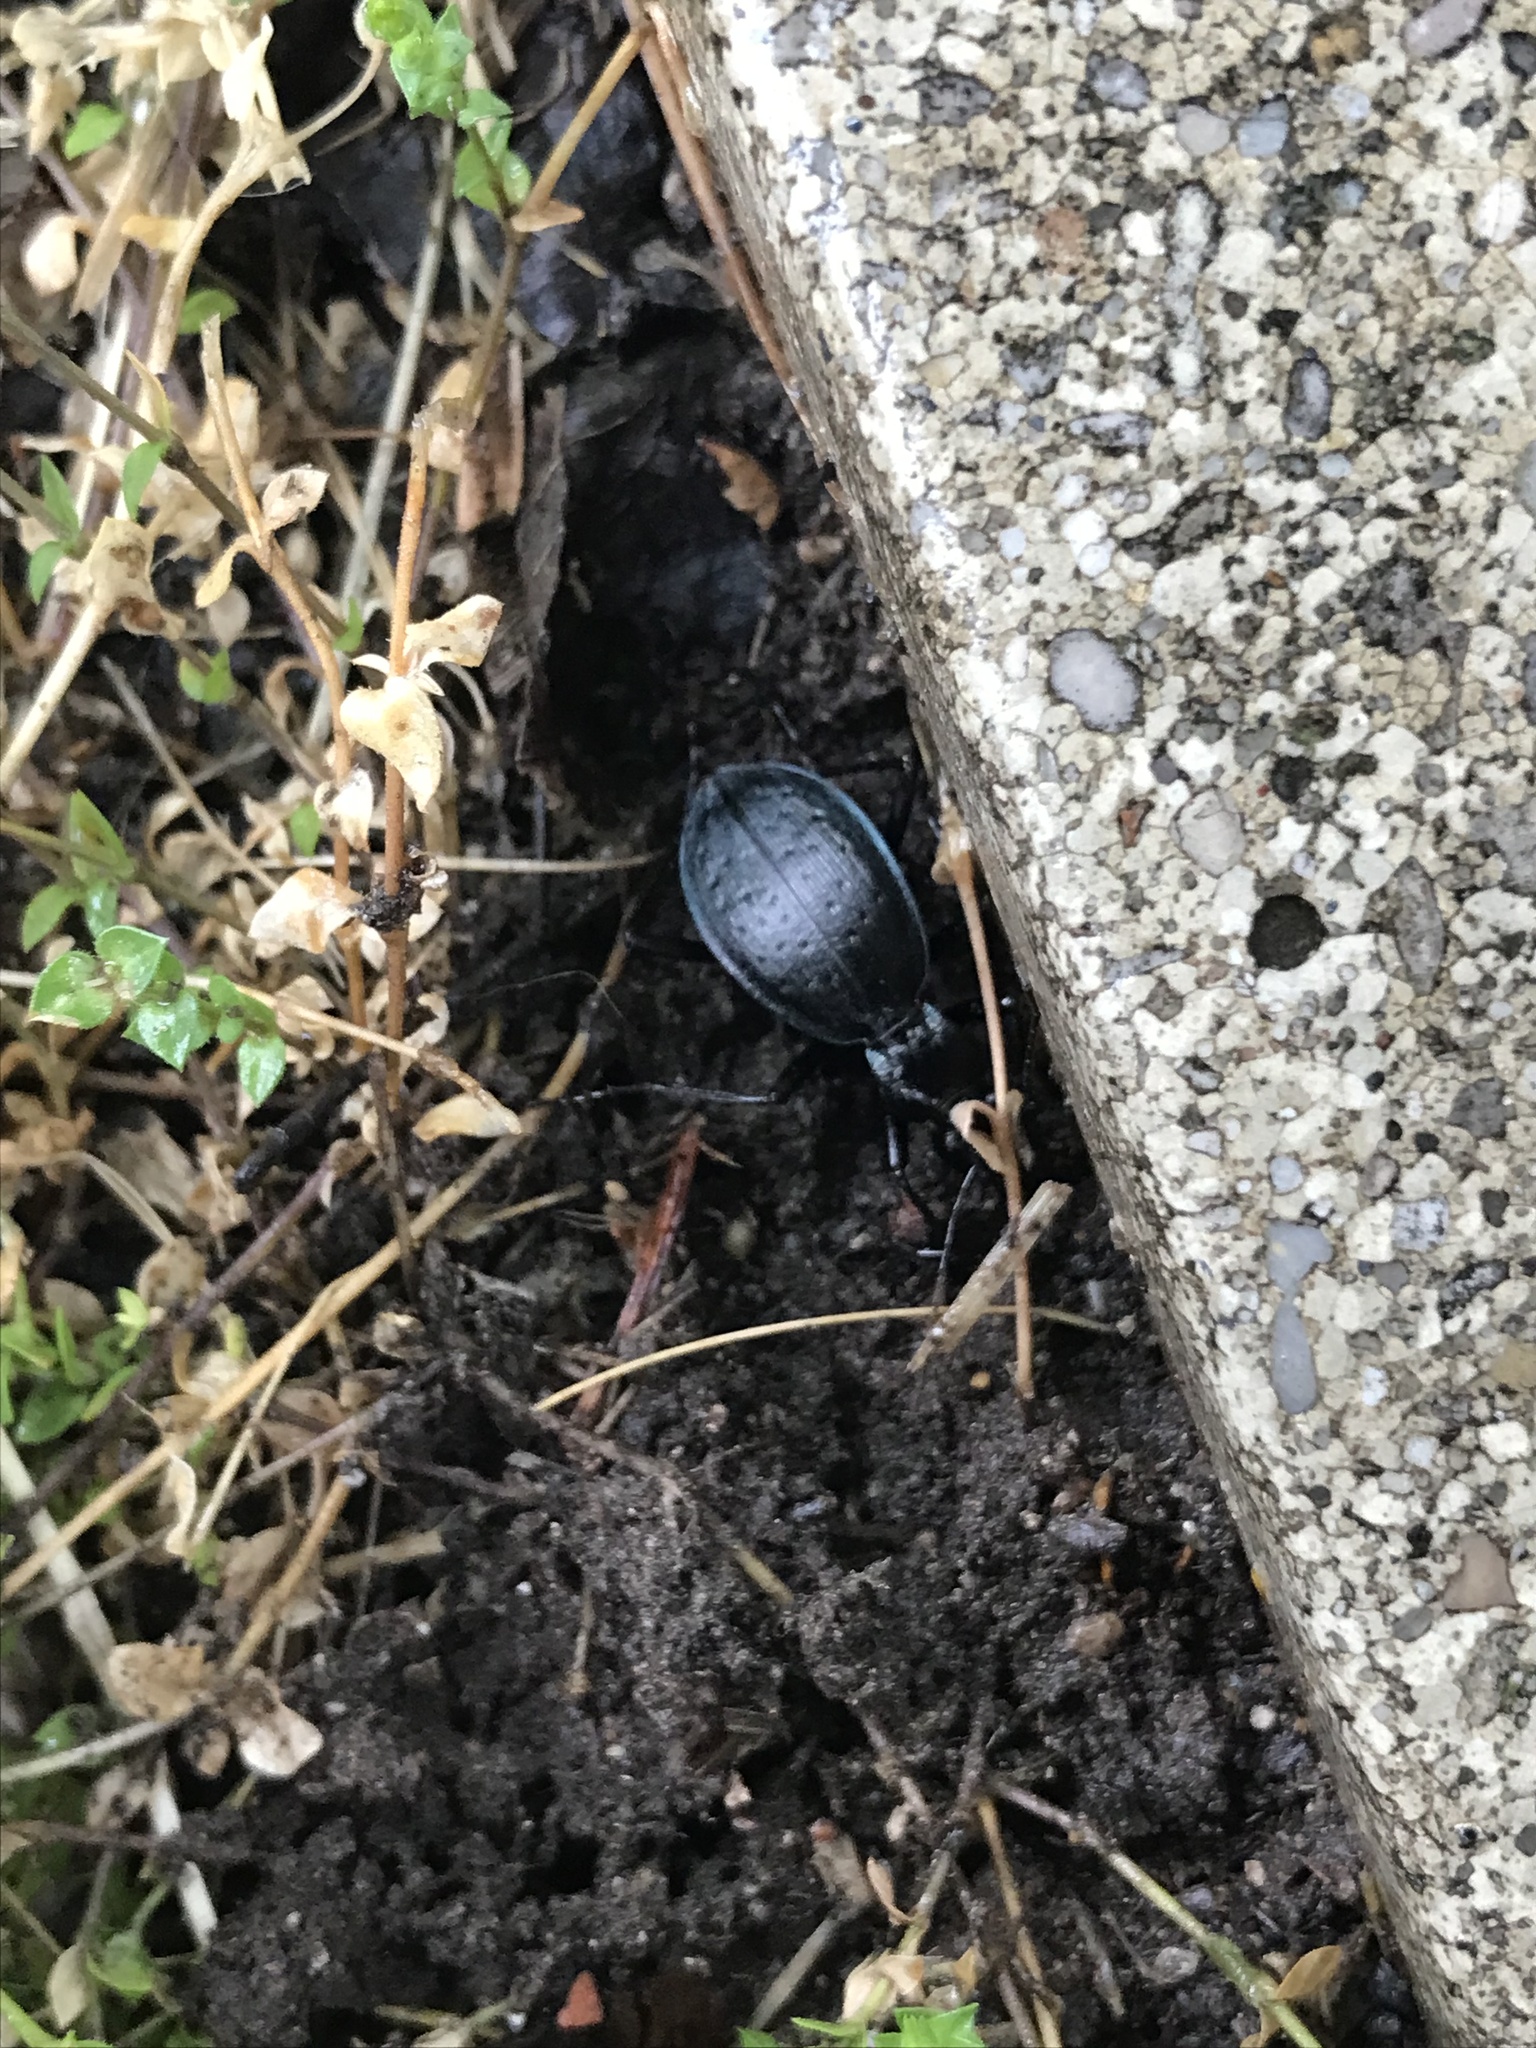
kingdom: Animalia
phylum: Arthropoda
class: Insecta
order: Coleoptera
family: Carabidae
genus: Carabus
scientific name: Carabus creutzeri
